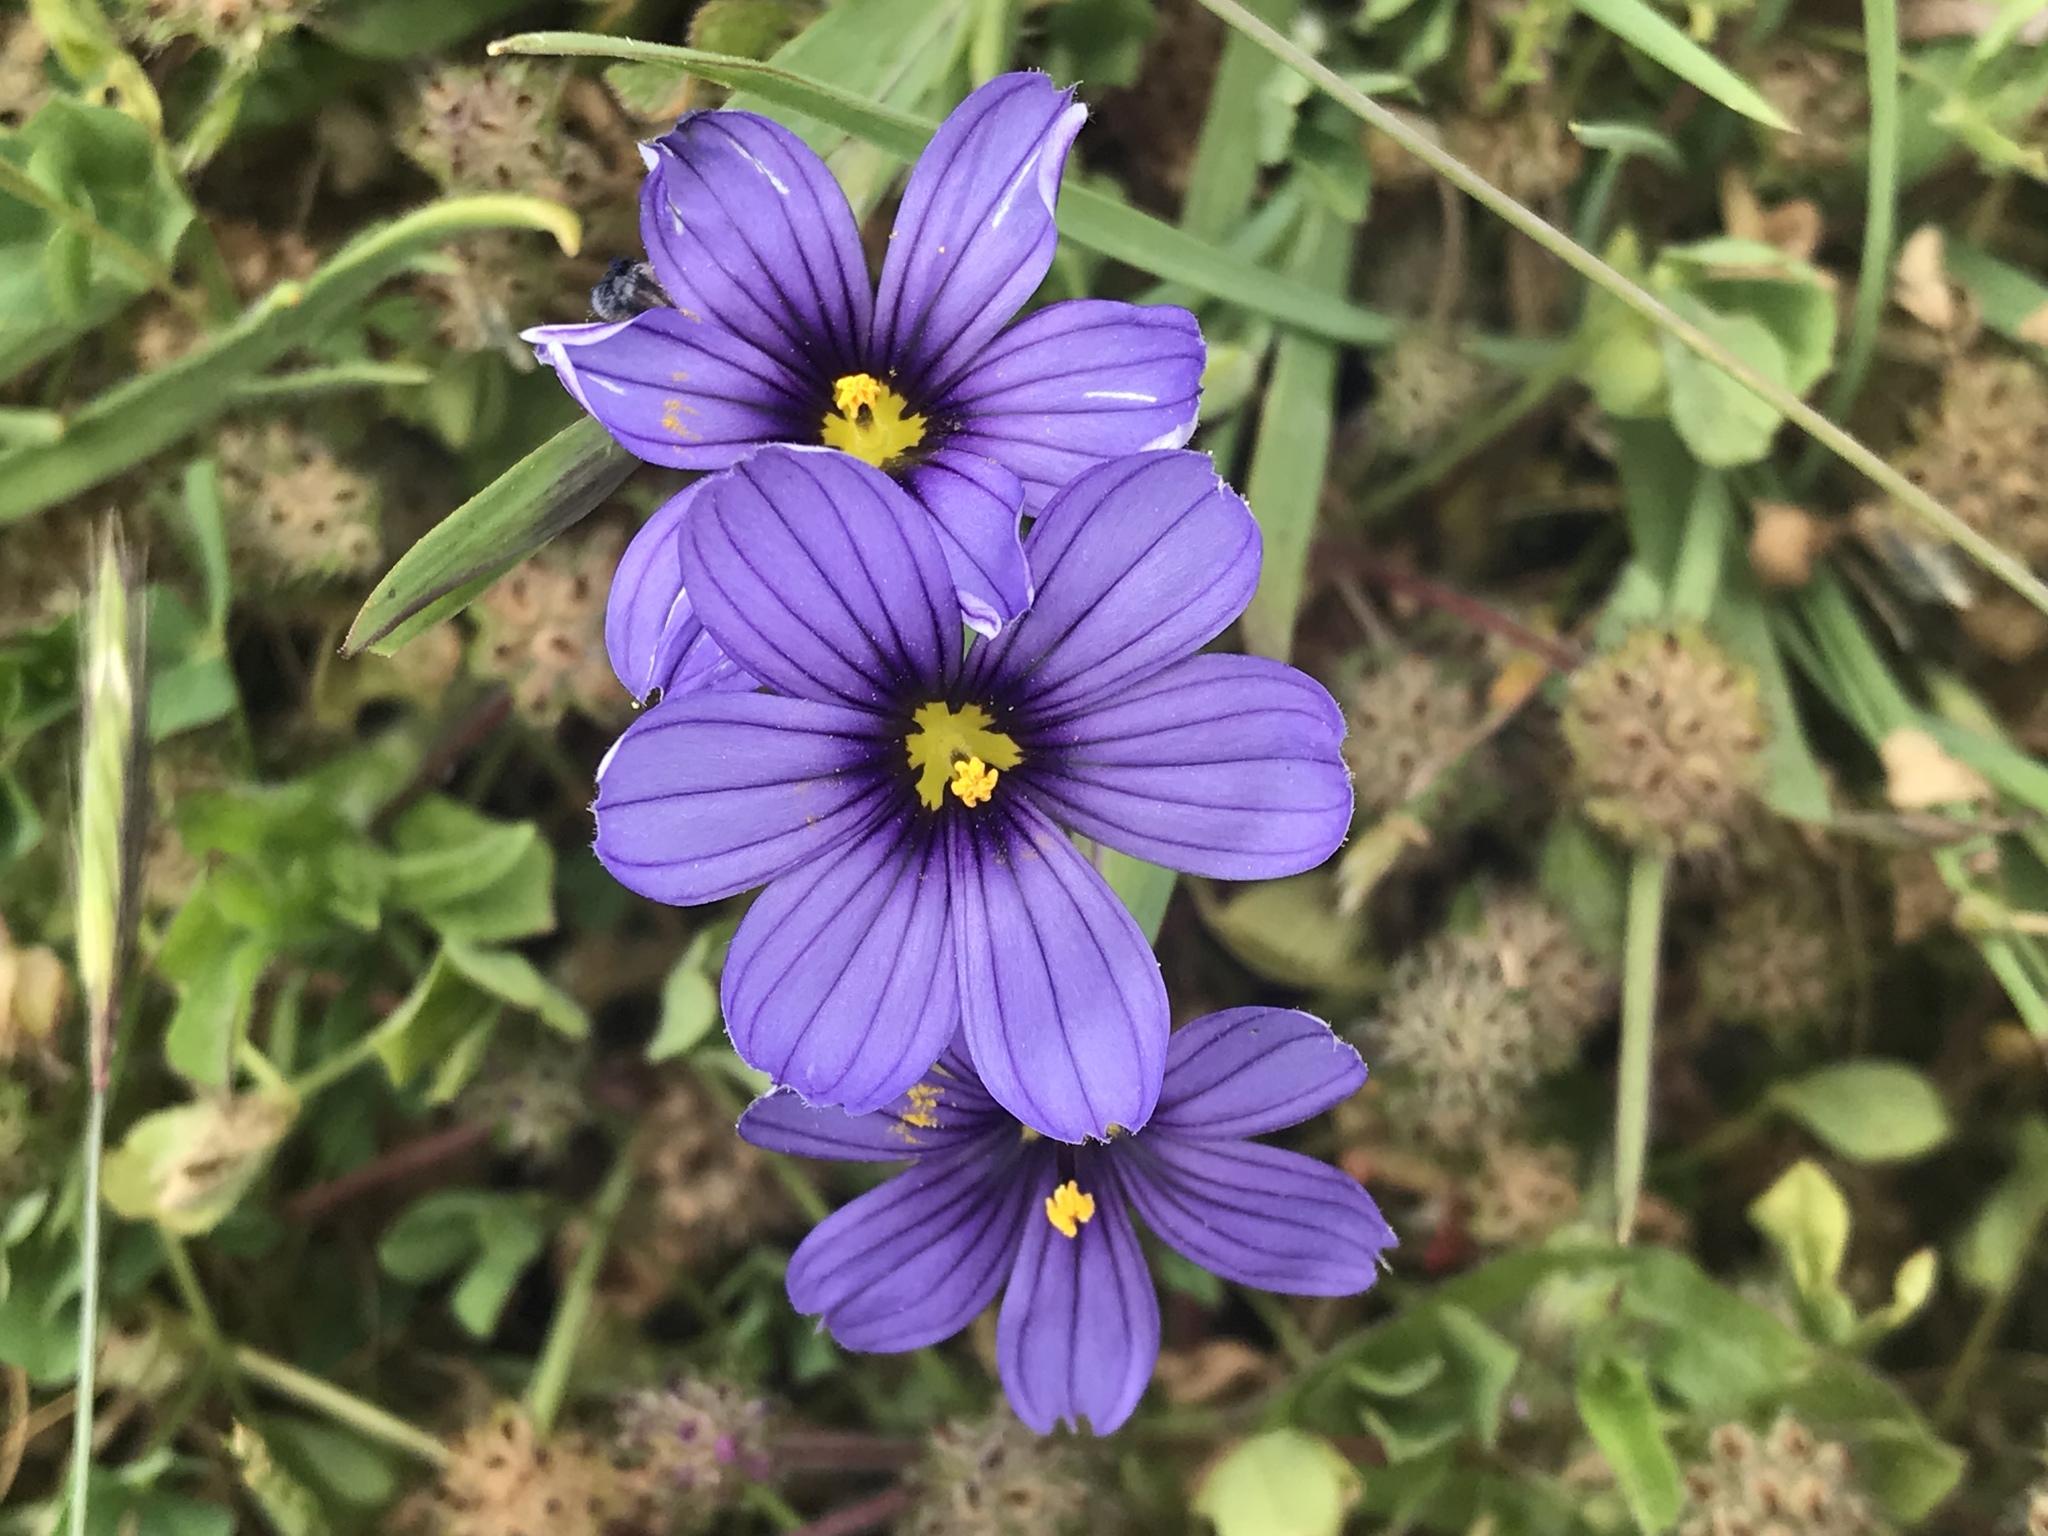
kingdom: Plantae
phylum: Tracheophyta
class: Liliopsida
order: Asparagales
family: Iridaceae
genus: Sisyrinchium
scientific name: Sisyrinchium bellum
